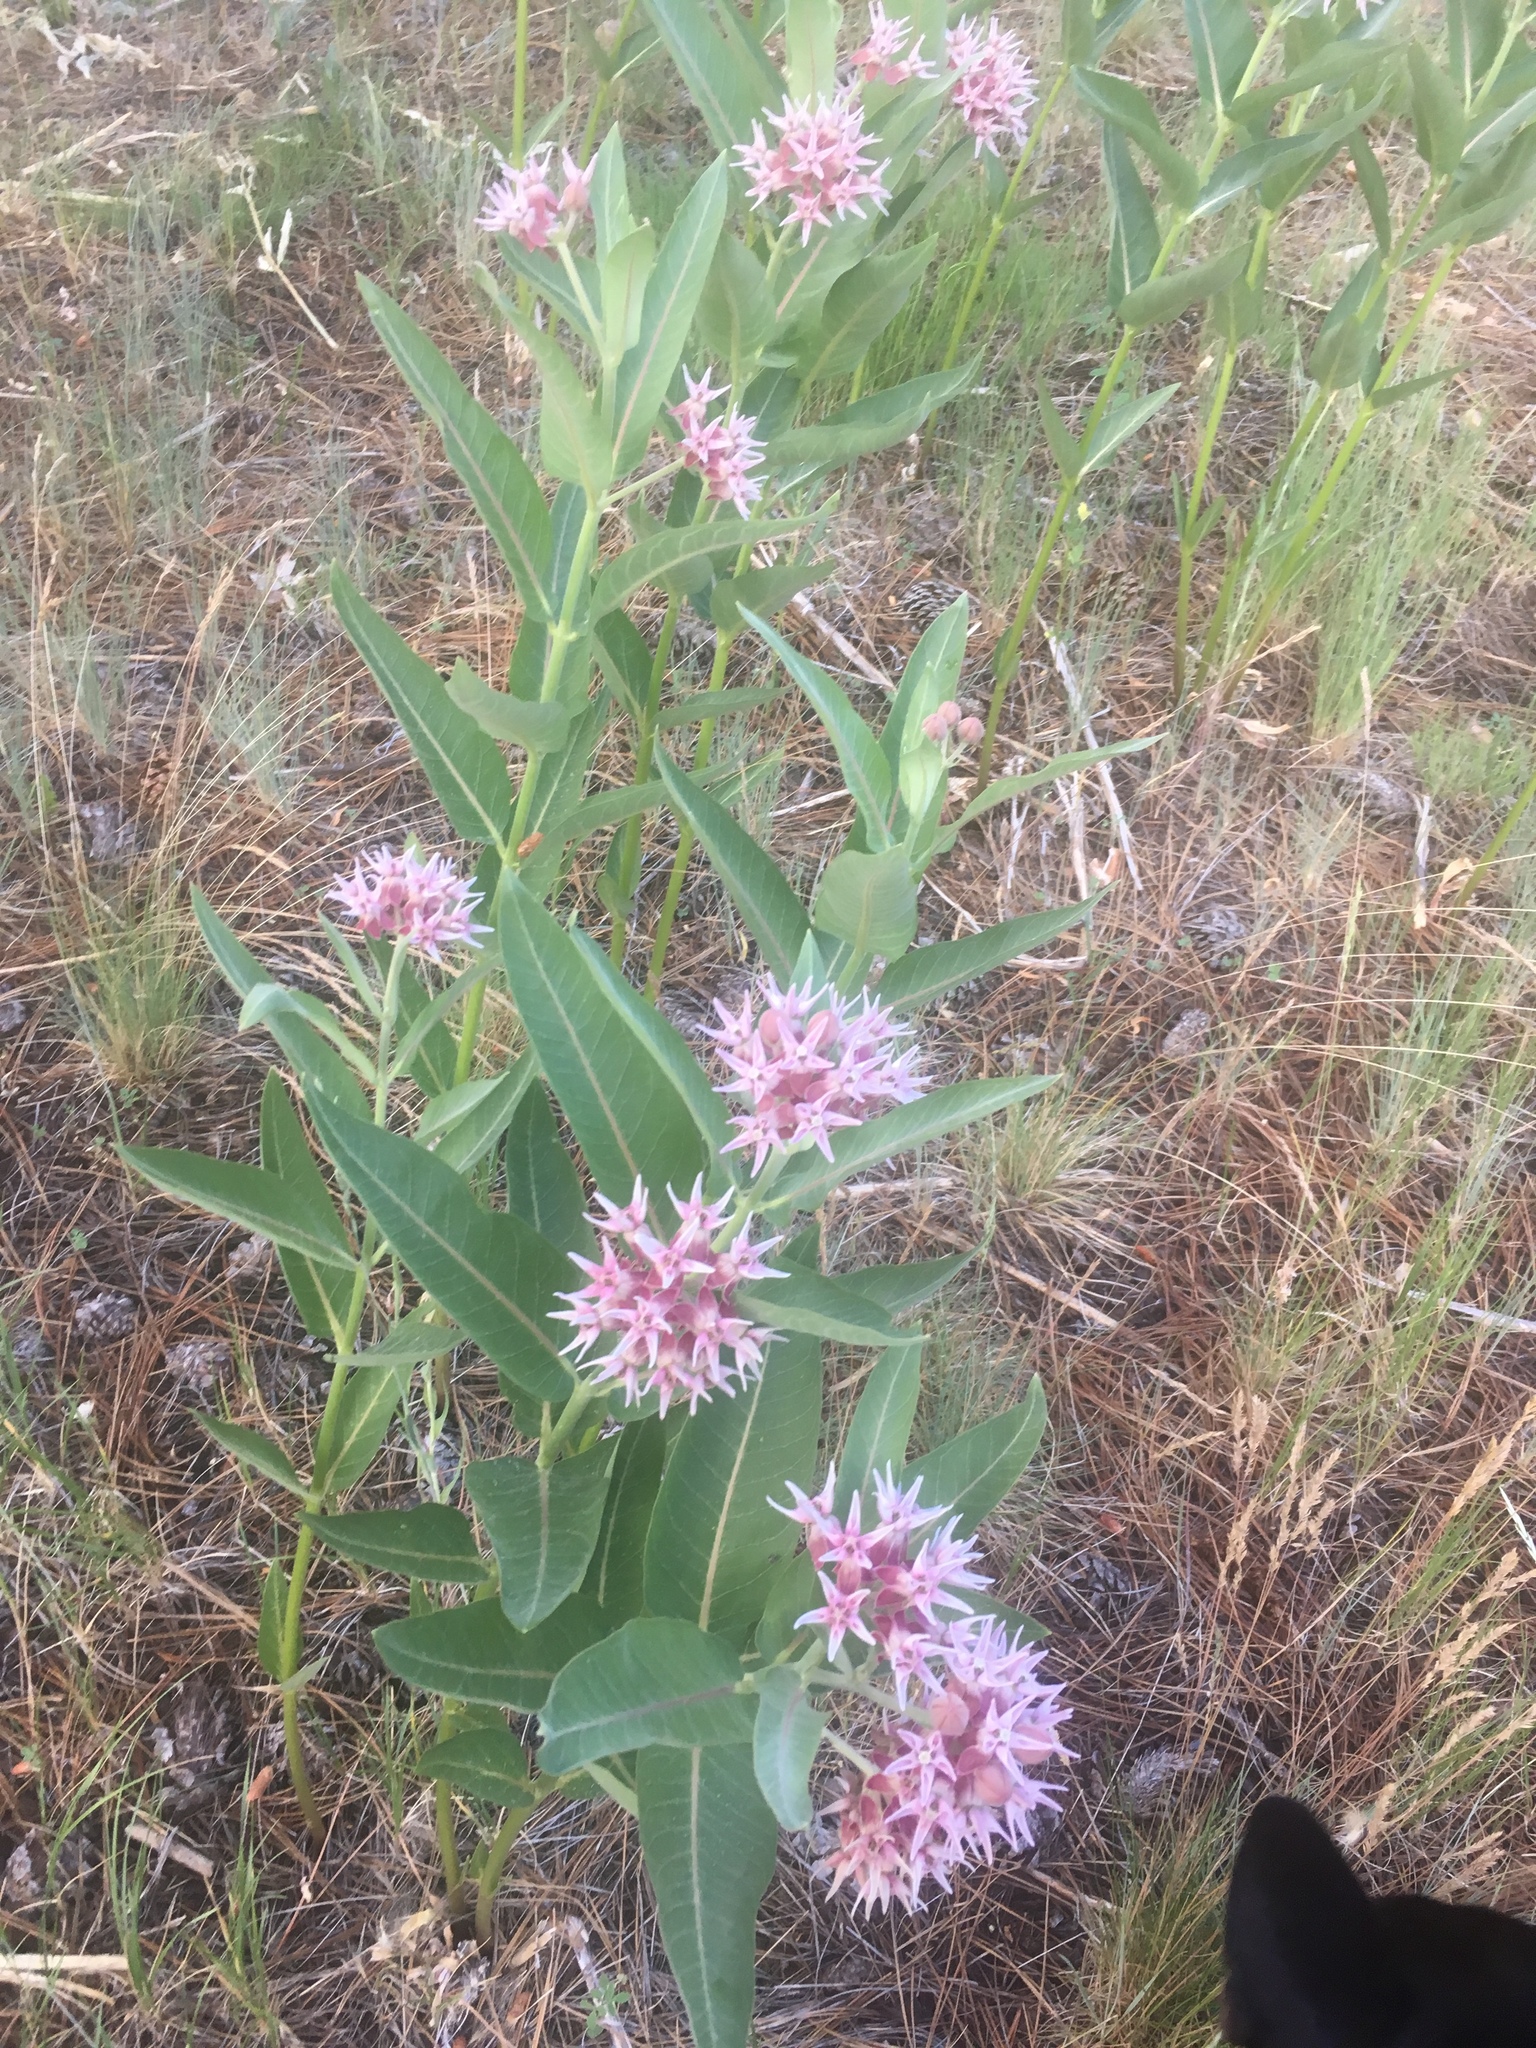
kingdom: Plantae
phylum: Tracheophyta
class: Magnoliopsida
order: Gentianales
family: Apocynaceae
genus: Asclepias
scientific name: Asclepias speciosa
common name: Showy milkweed
